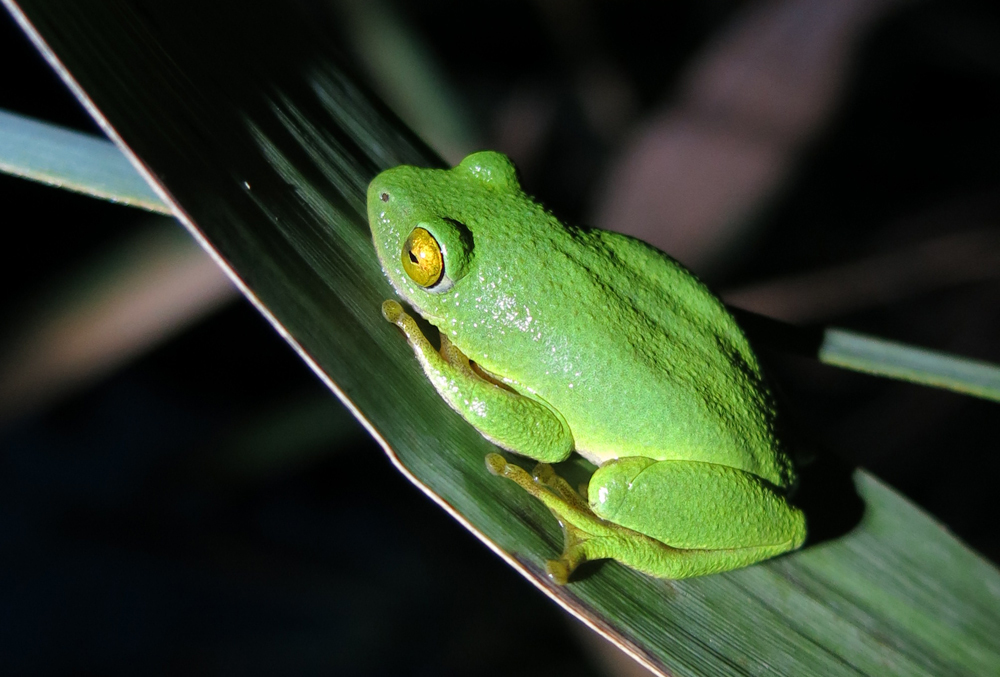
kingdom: Animalia
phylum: Chordata
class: Amphibia
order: Anura
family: Hyperoliidae
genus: Hyperolius
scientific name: Hyperolius tuberilinguis
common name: Tinker reed frog
